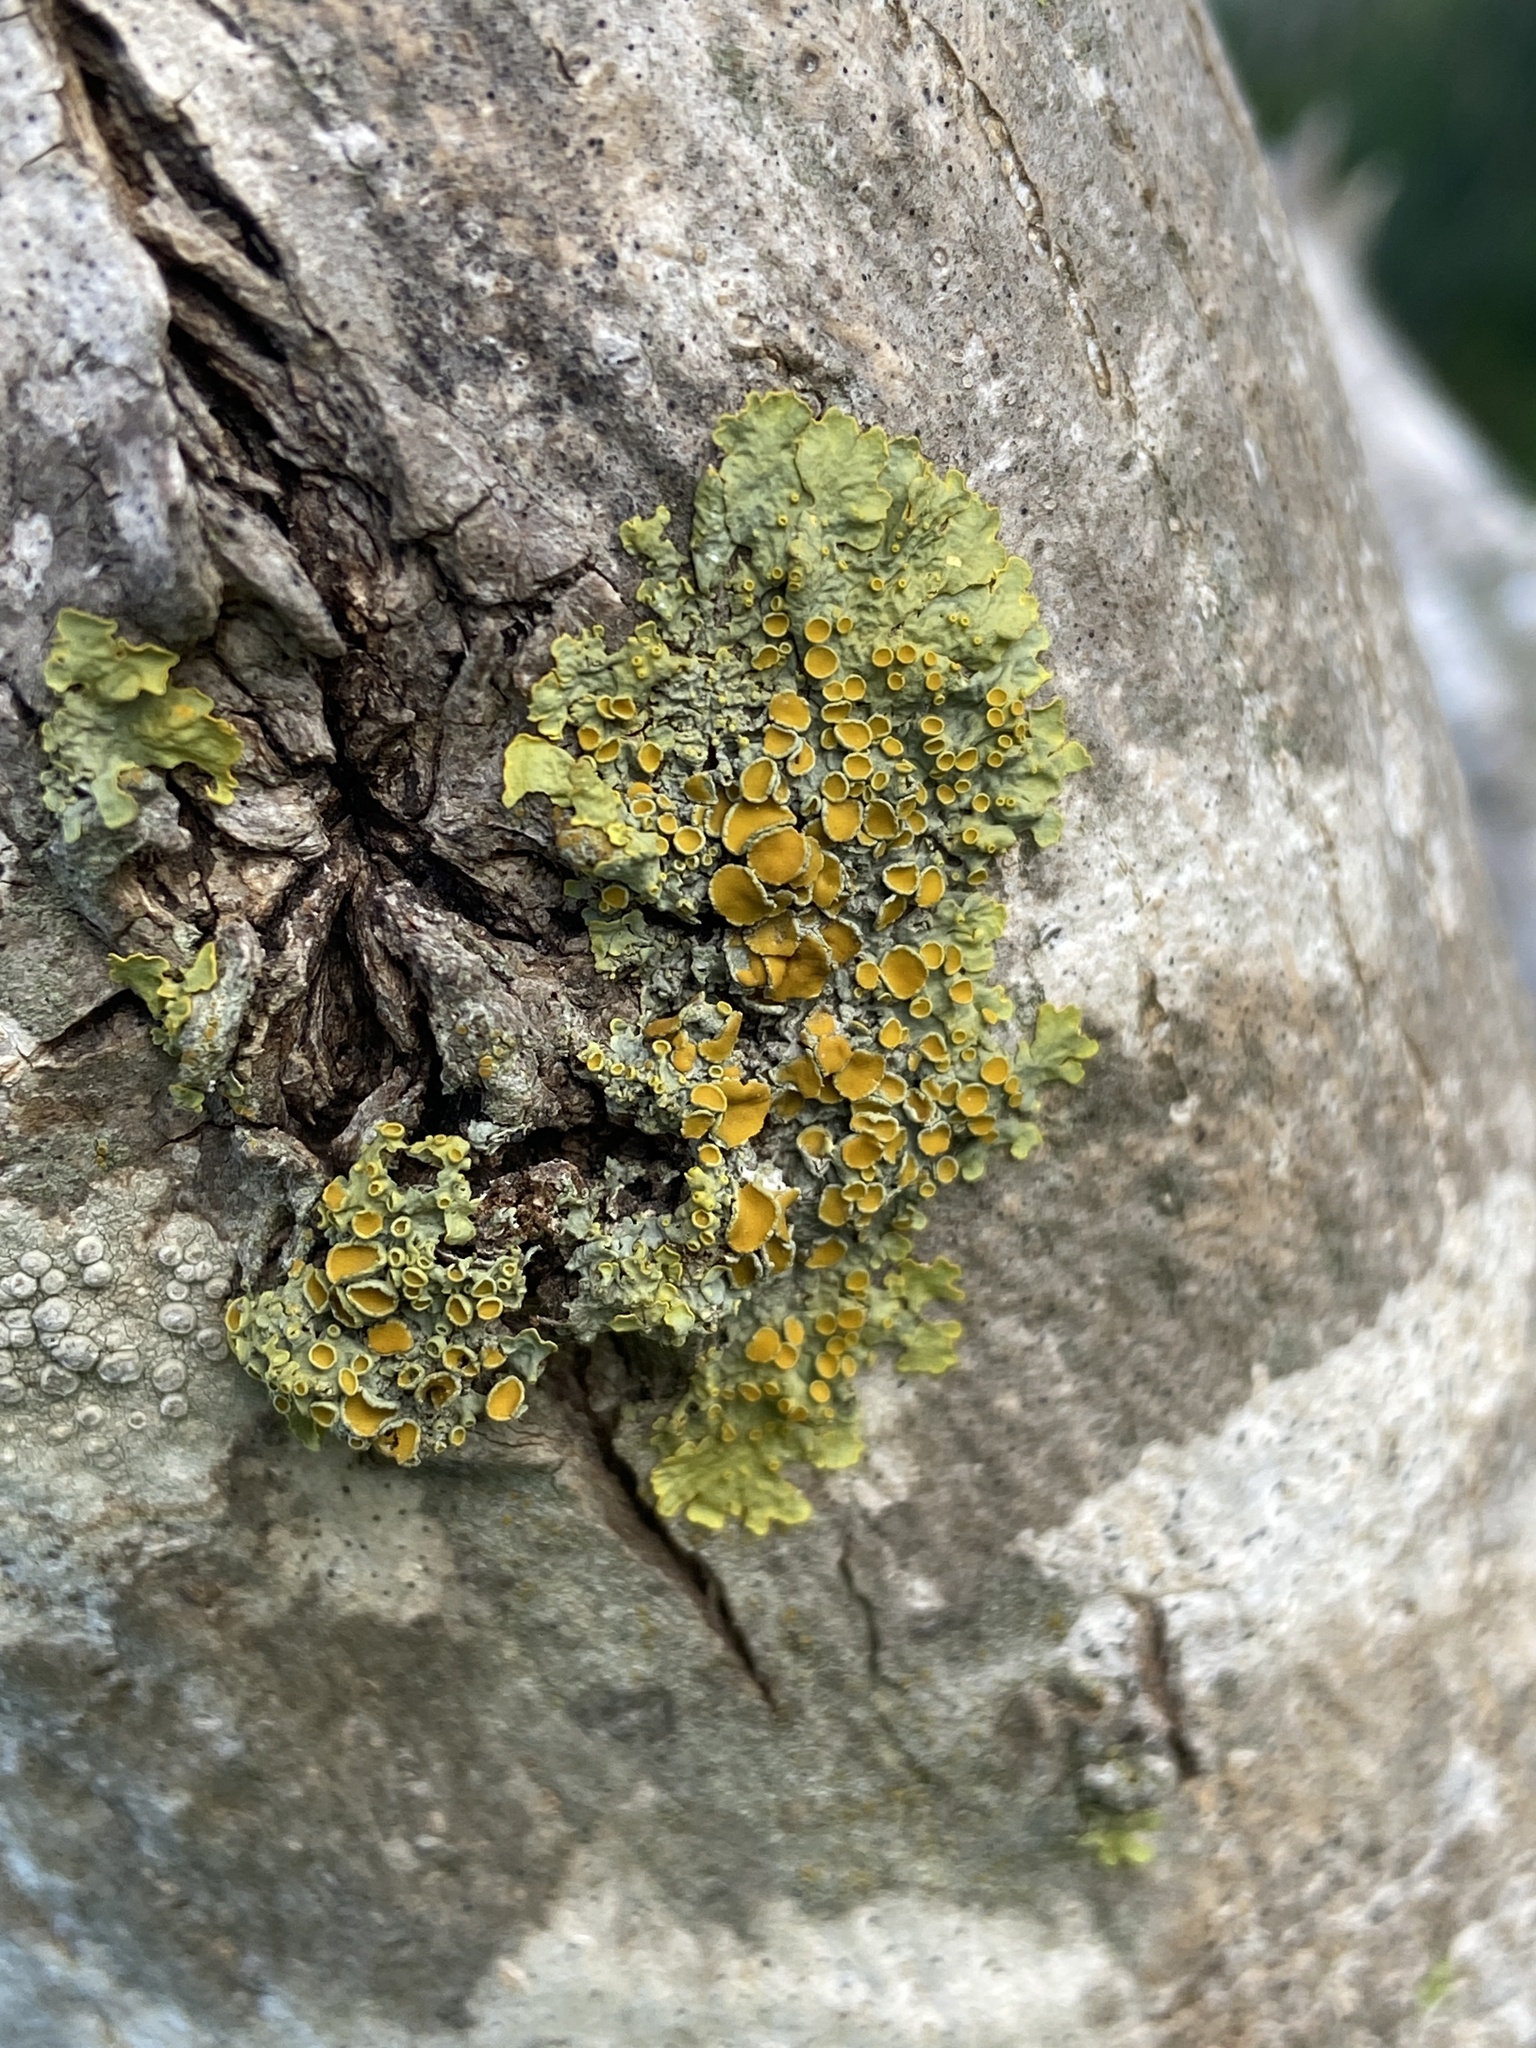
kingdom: Fungi
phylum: Ascomycota
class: Lecanoromycetes
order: Teloschistales
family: Teloschistaceae
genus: Xanthoria
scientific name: Xanthoria parietina
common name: Common orange lichen
